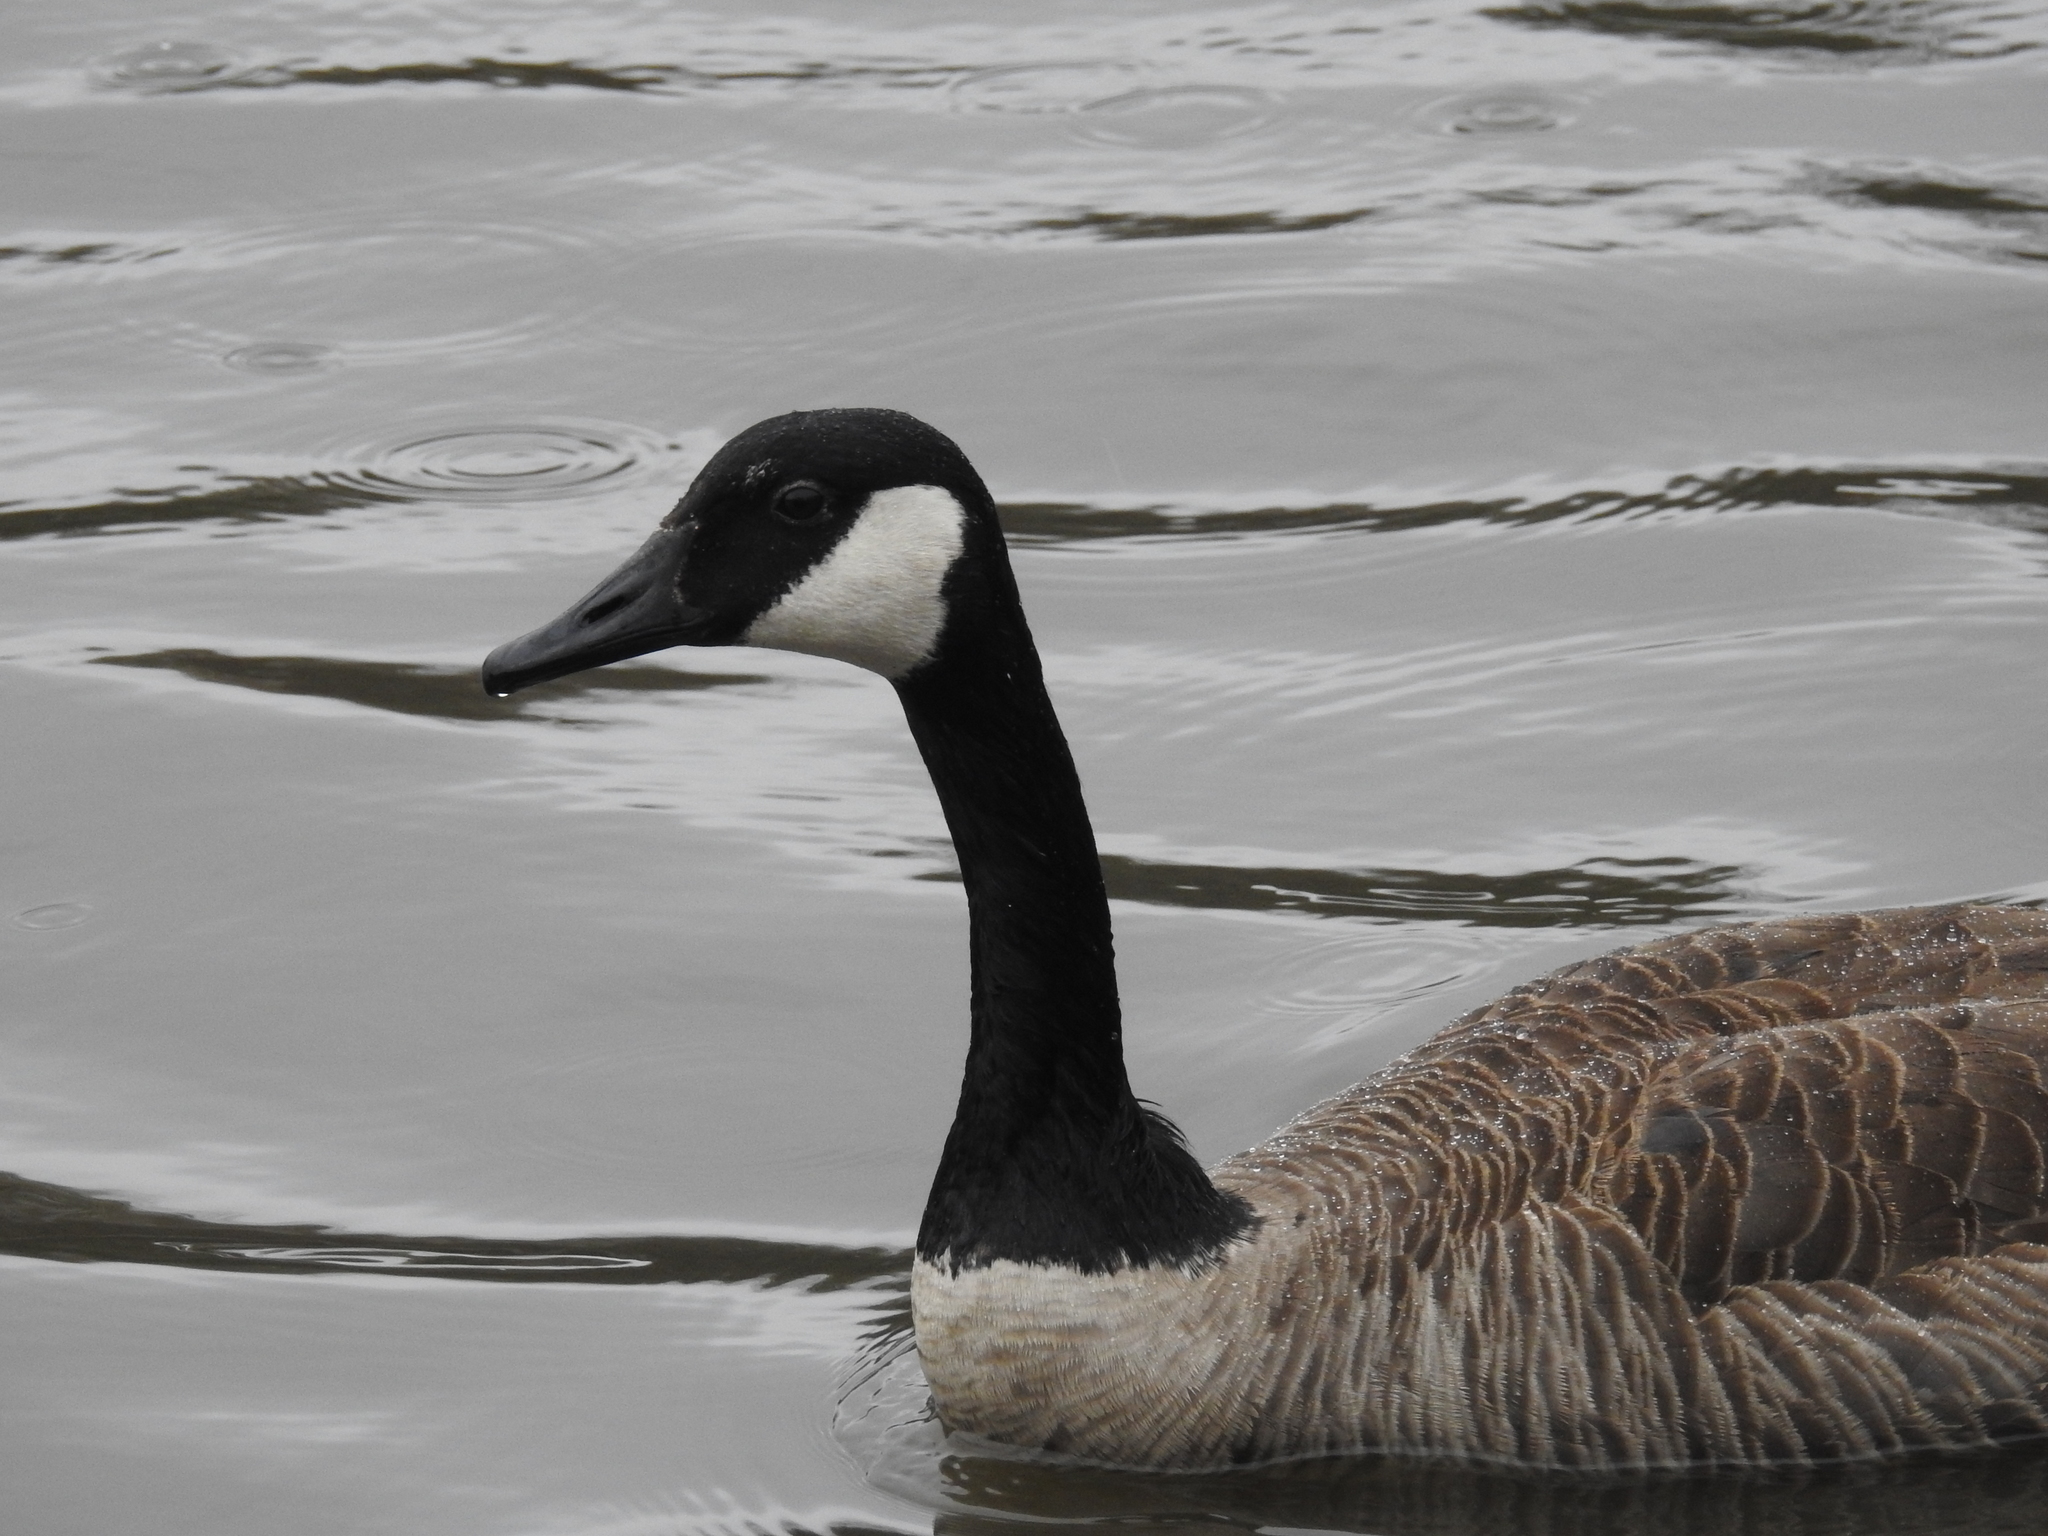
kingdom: Animalia
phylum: Chordata
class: Aves
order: Anseriformes
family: Anatidae
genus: Branta
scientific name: Branta canadensis
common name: Canada goose
